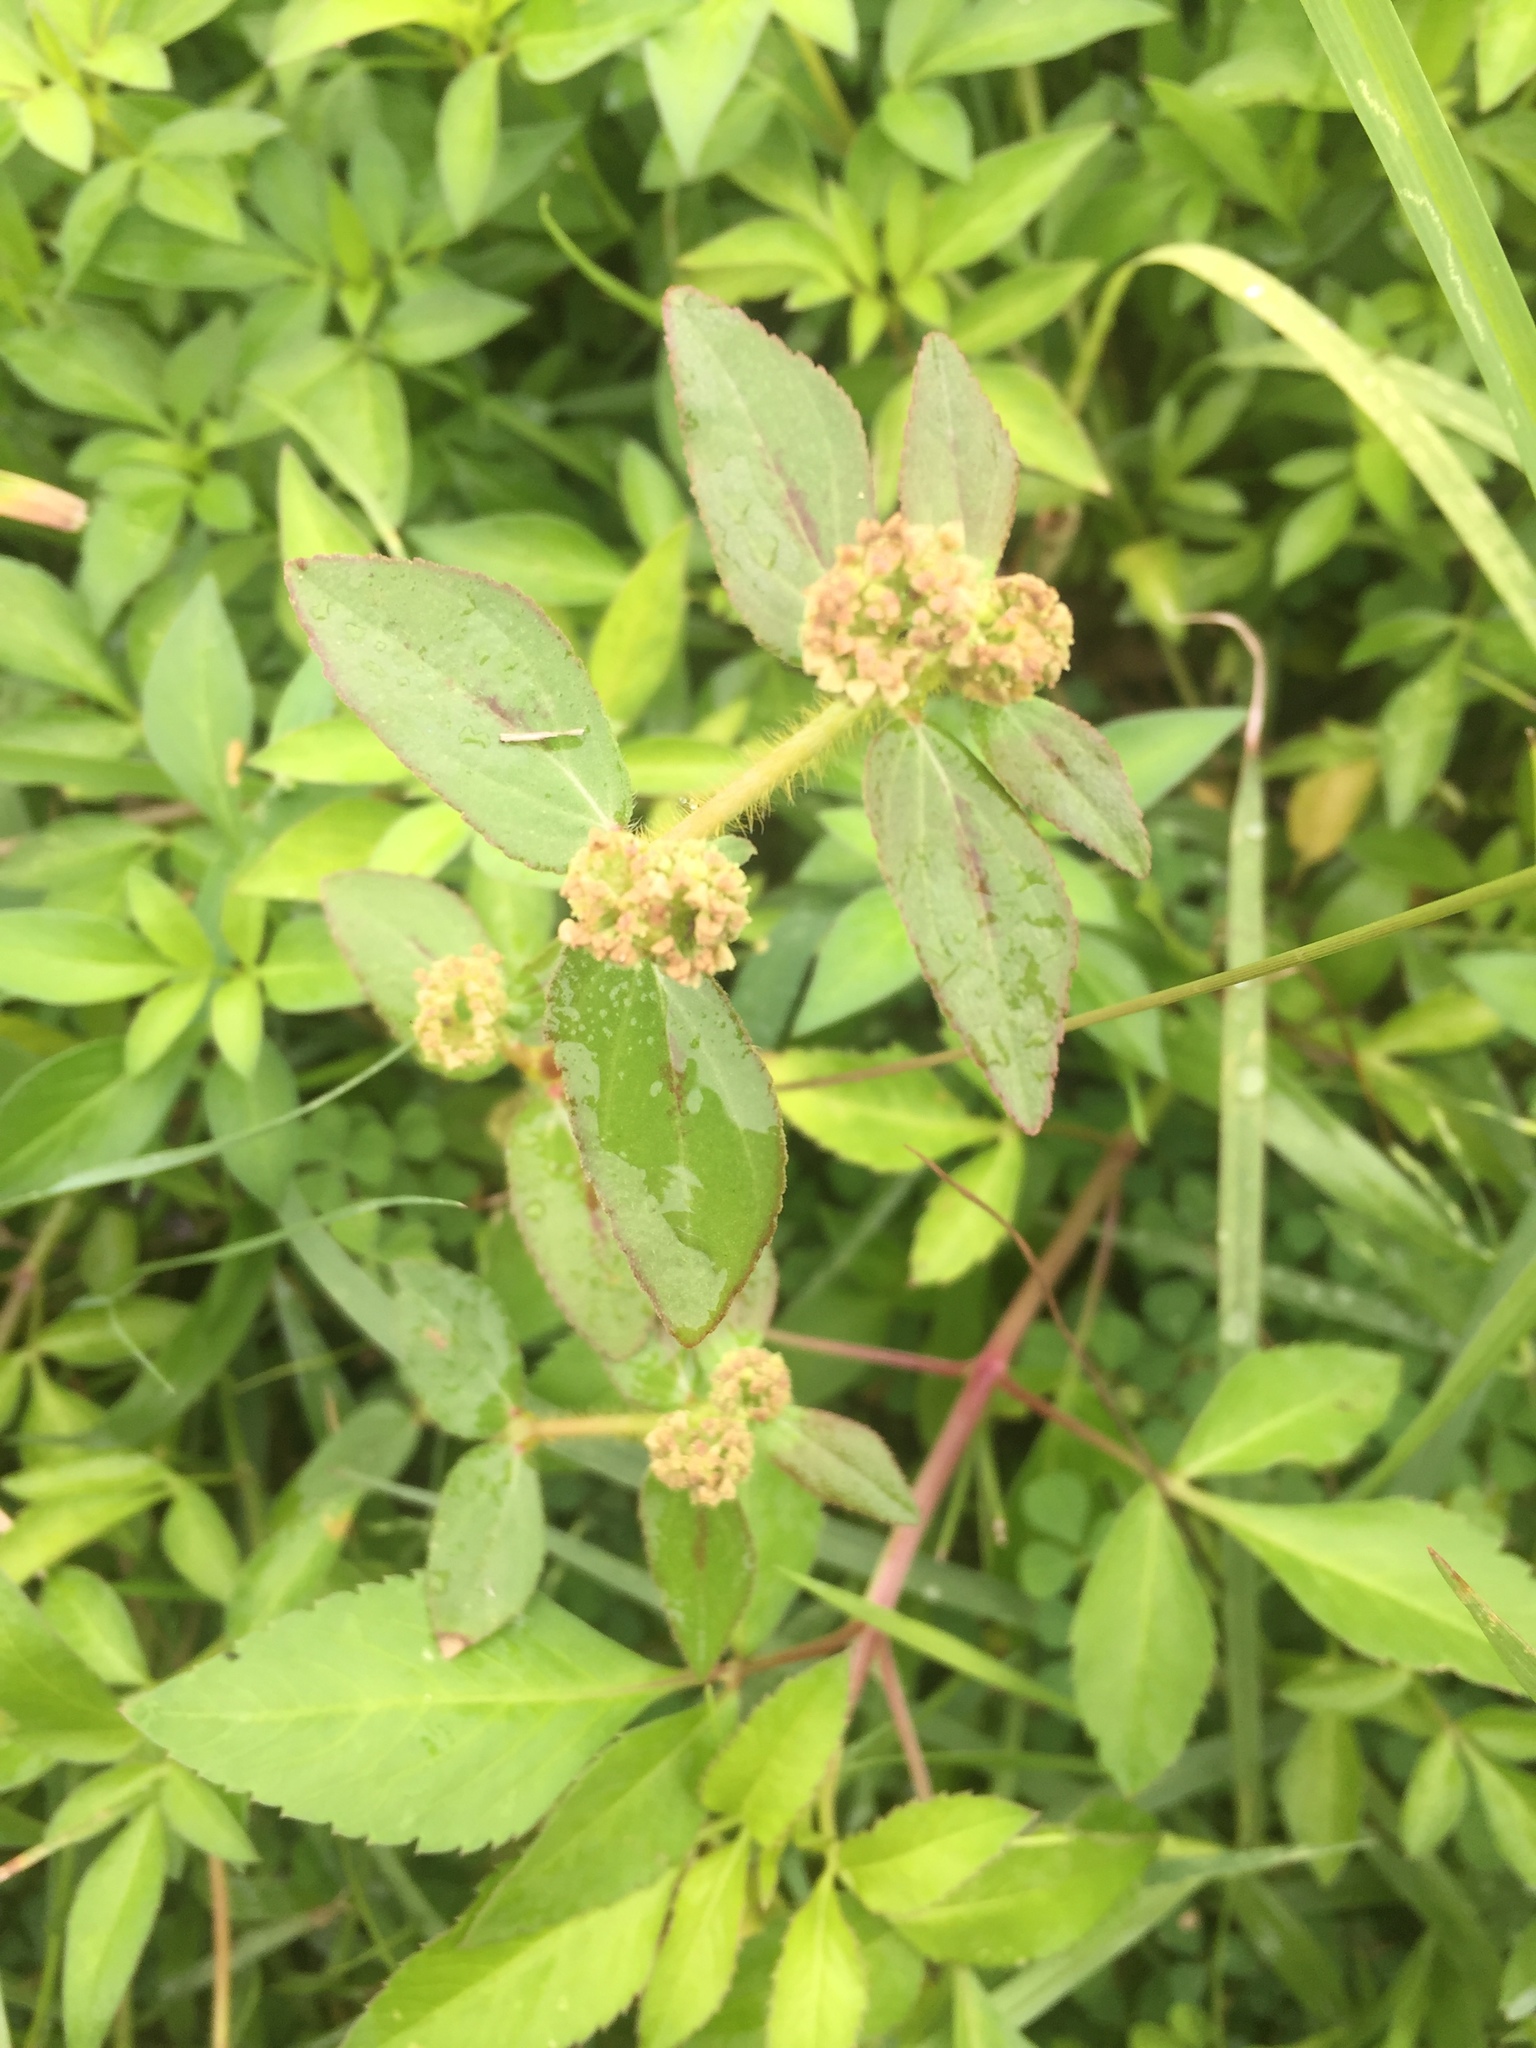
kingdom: Plantae
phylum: Tracheophyta
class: Magnoliopsida
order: Malpighiales
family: Euphorbiaceae
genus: Euphorbia
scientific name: Euphorbia hirta
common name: Pillpod sandmat
